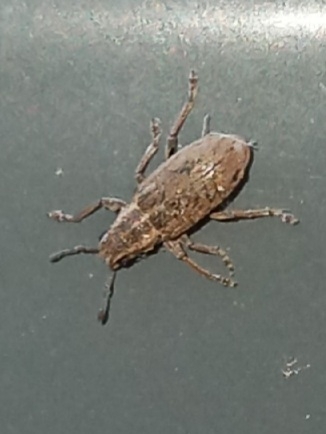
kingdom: Animalia
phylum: Arthropoda
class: Insecta
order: Coleoptera
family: Curculionidae
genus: Sitona
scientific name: Sitona lineatus
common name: Weevil
